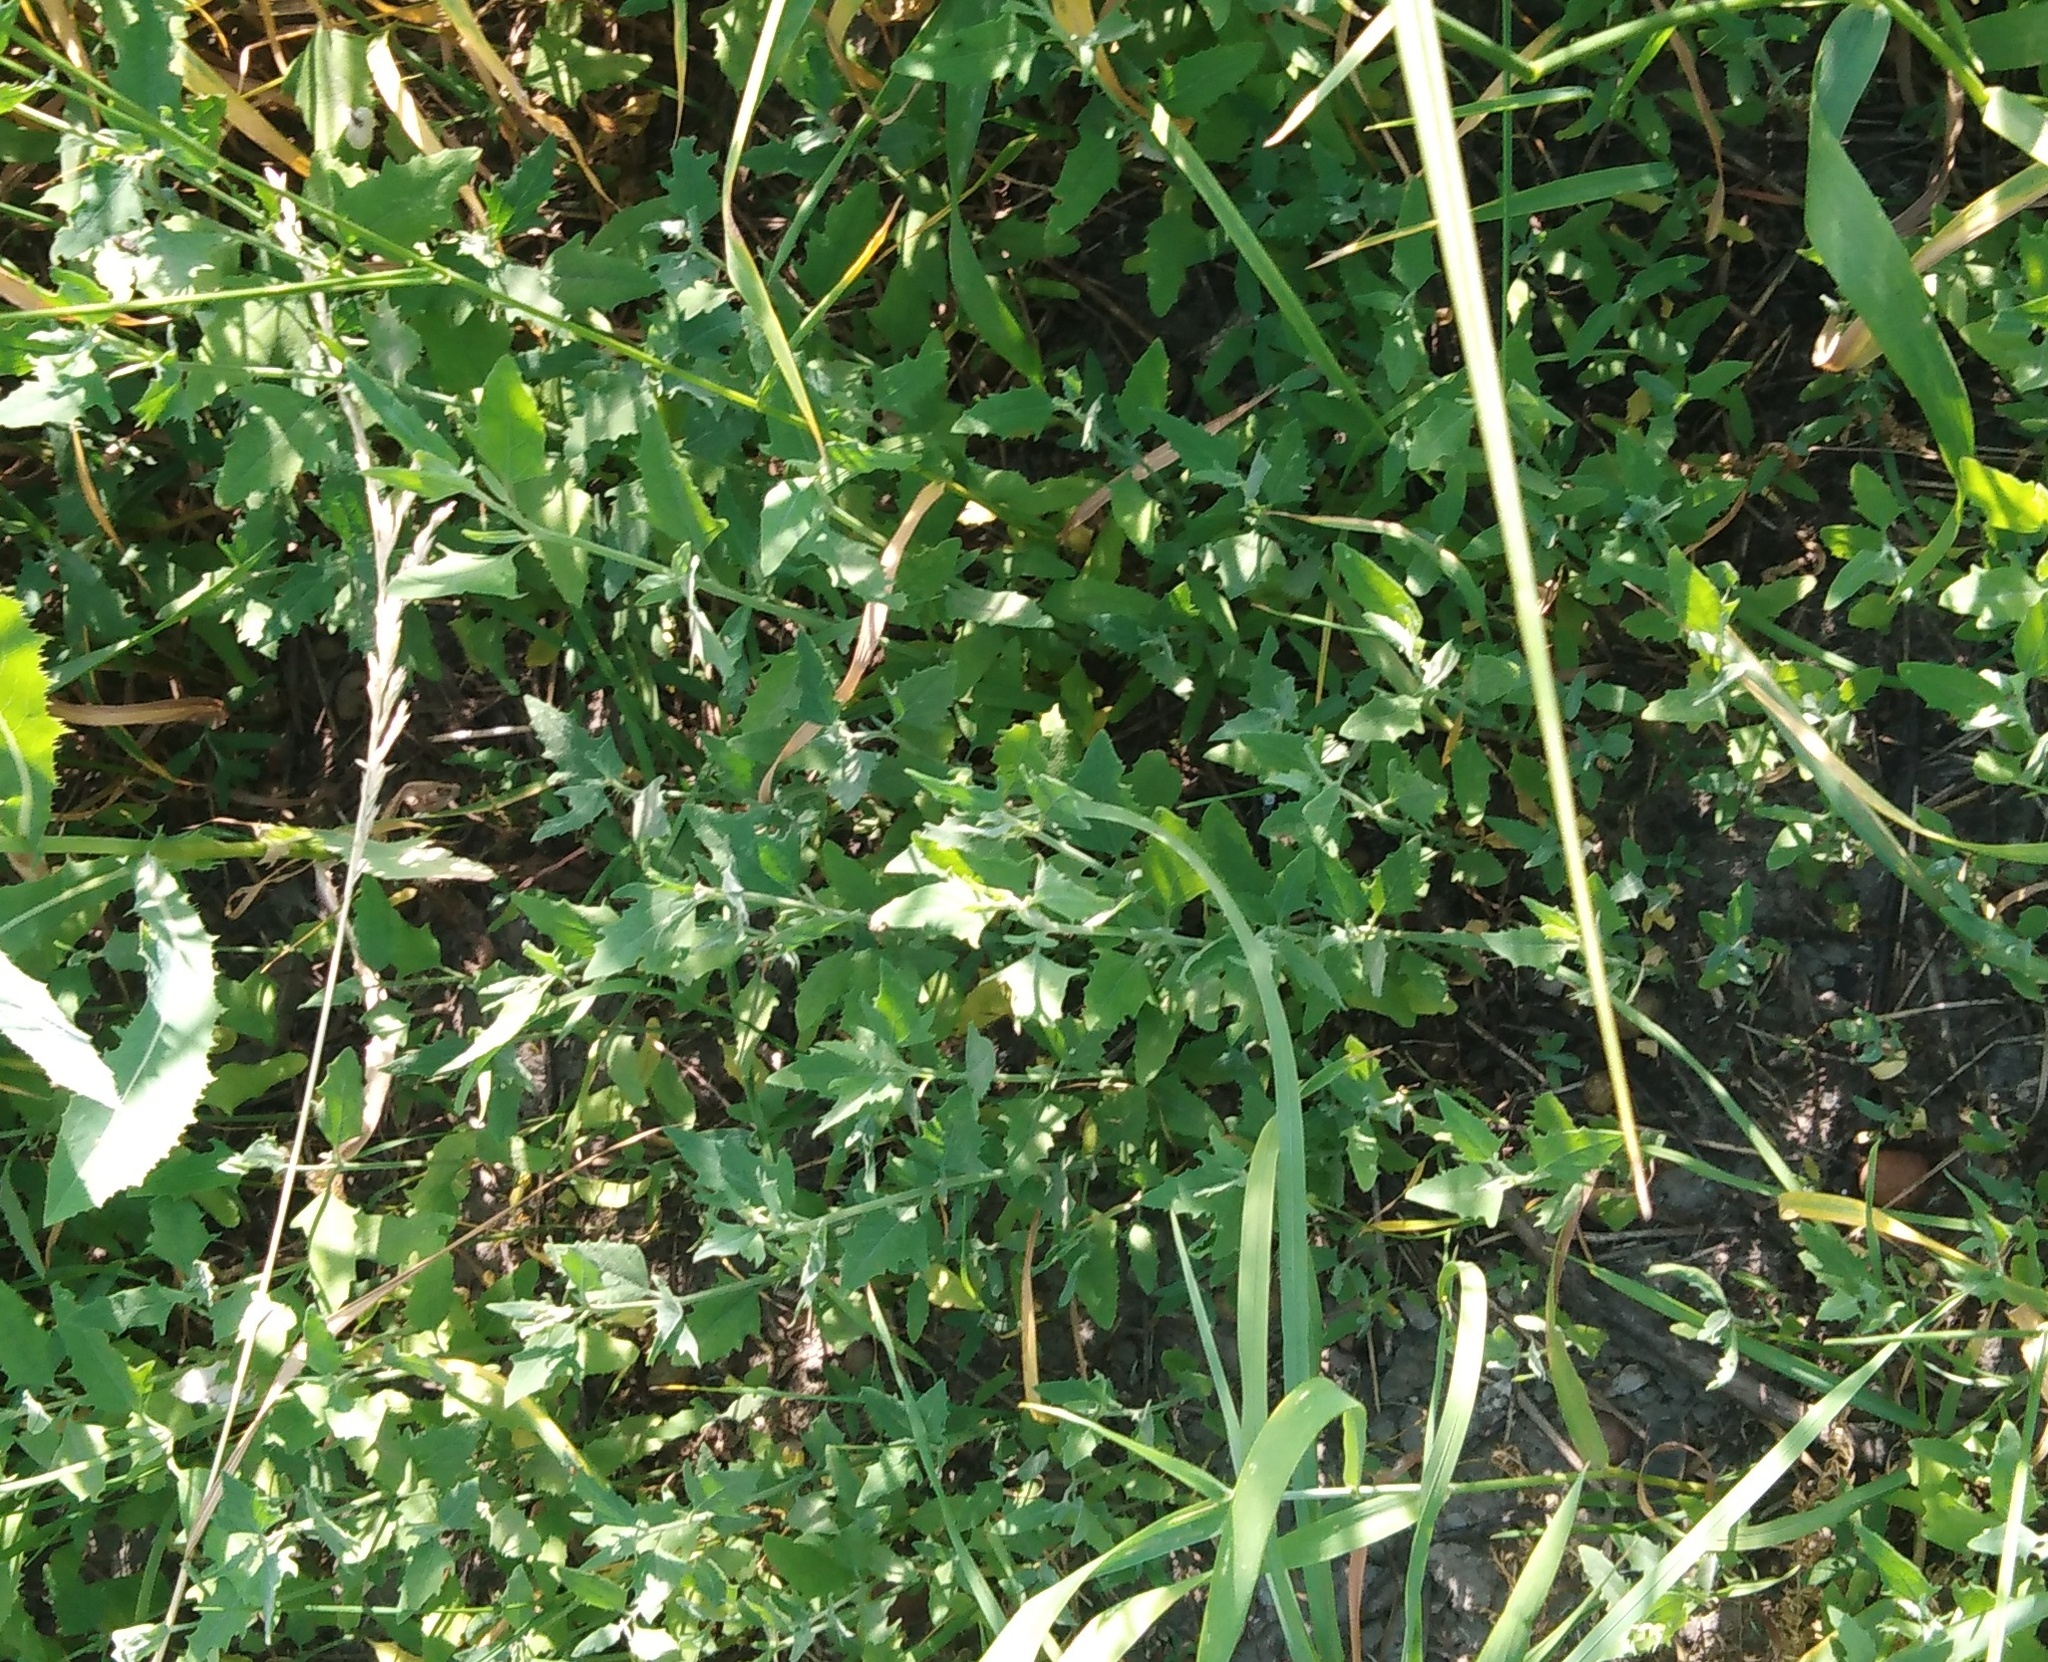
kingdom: Plantae
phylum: Tracheophyta
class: Magnoliopsida
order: Caryophyllales
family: Amaranthaceae
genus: Chenopodium
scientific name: Chenopodium album
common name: Fat-hen
